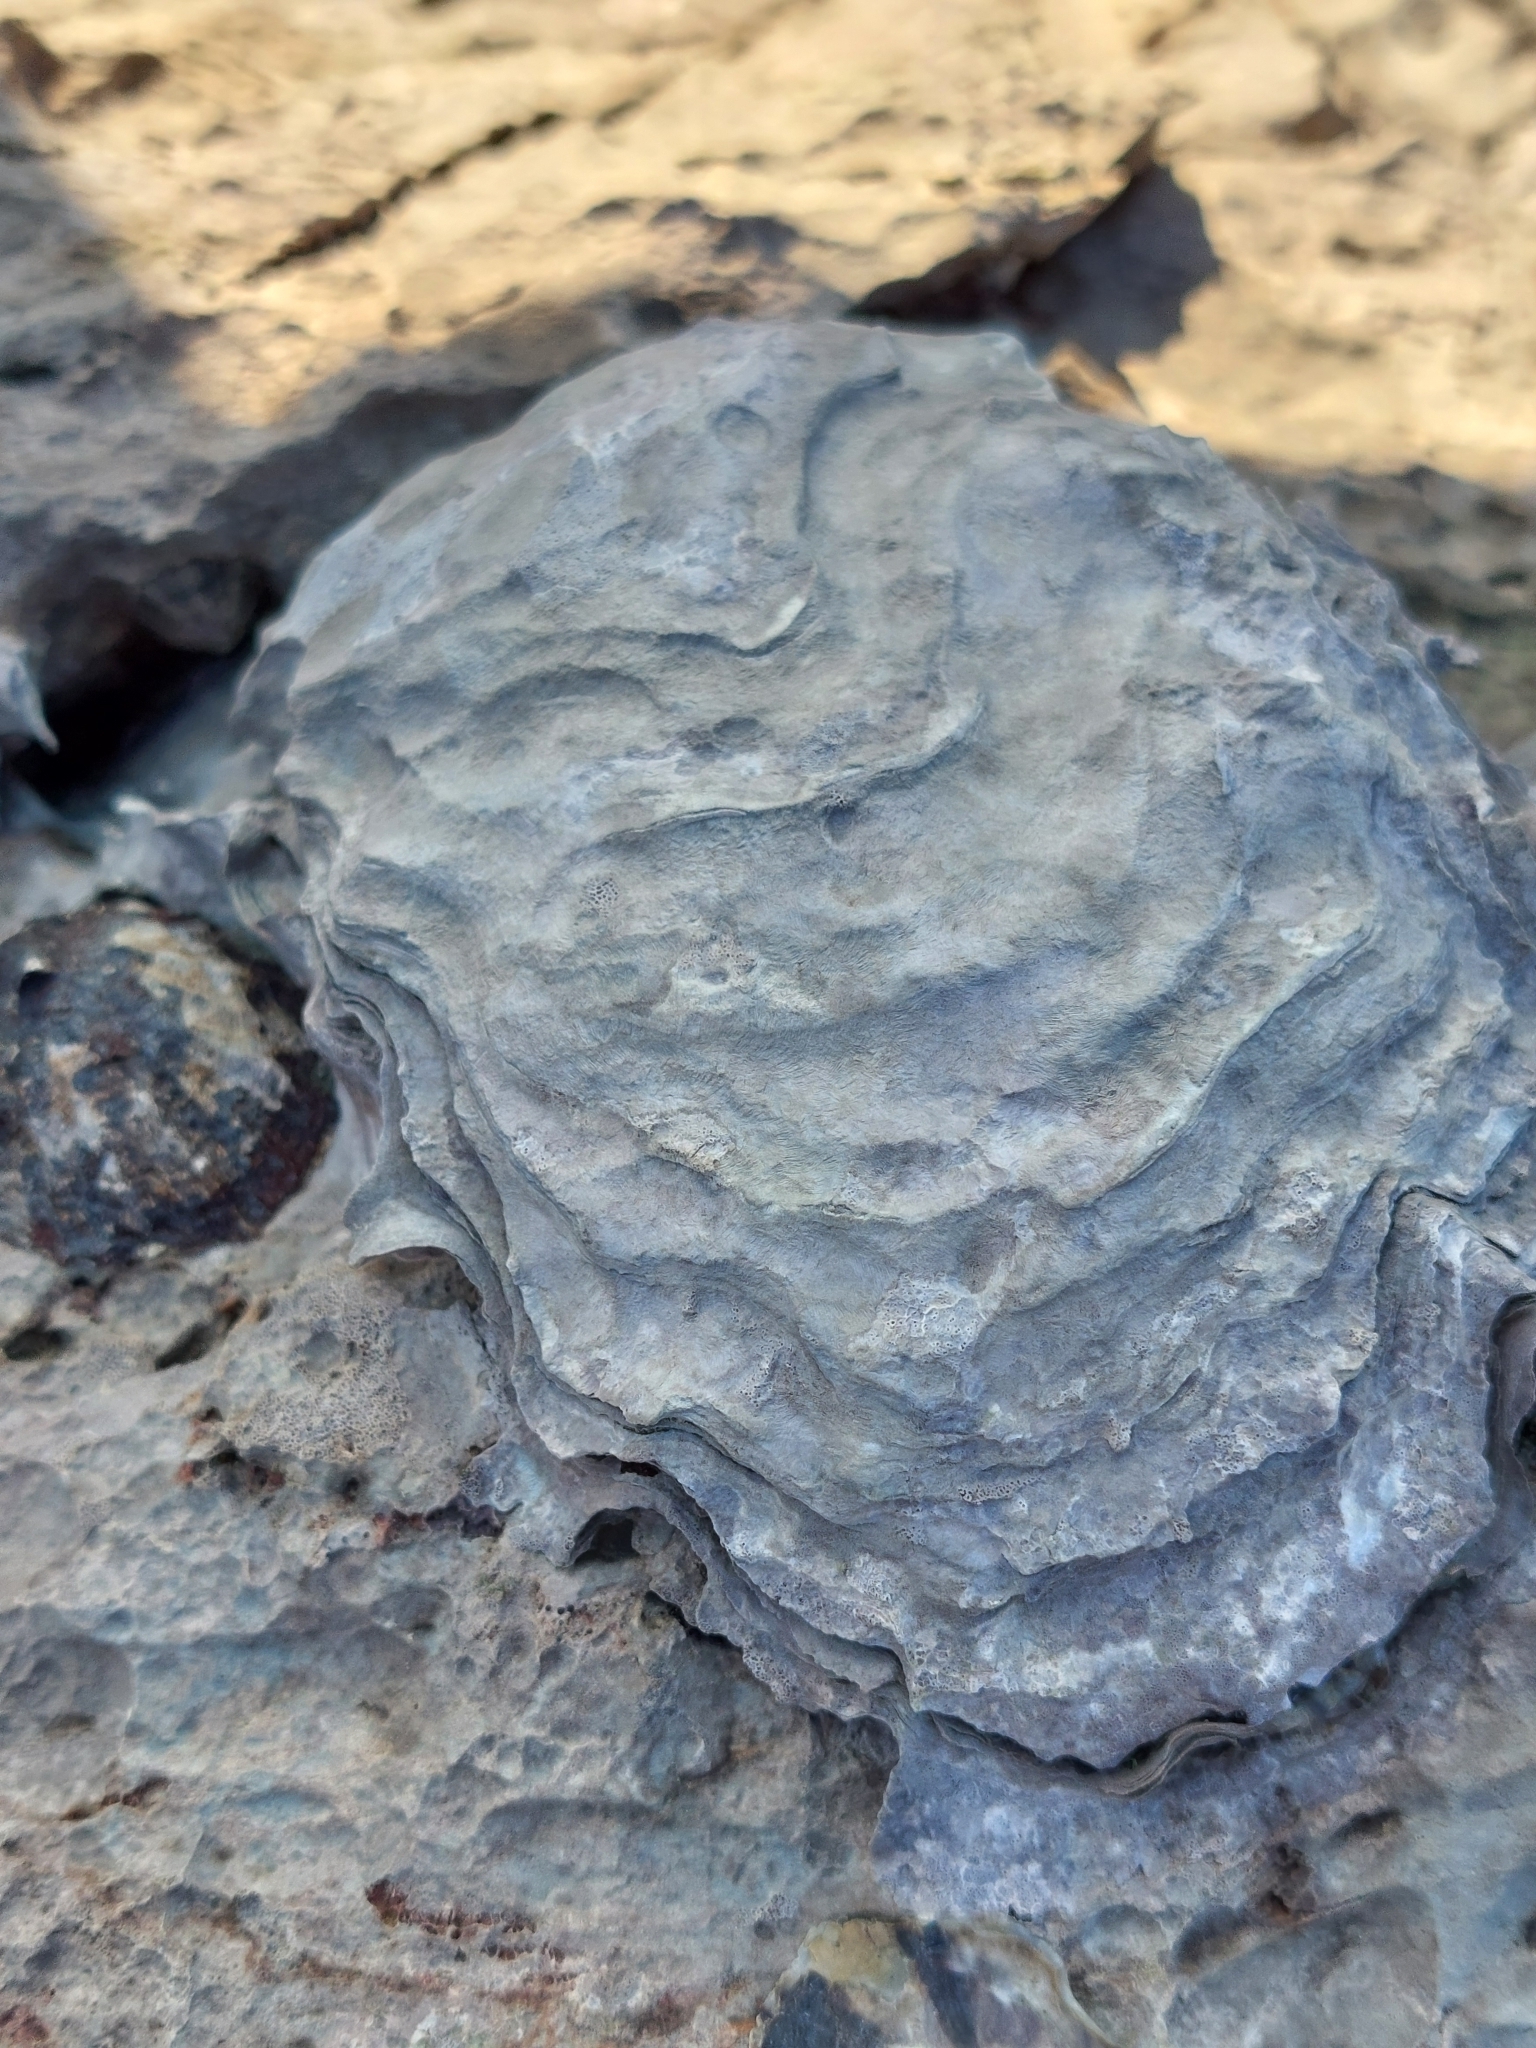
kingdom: Animalia
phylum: Mollusca
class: Bivalvia
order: Ostreida
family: Ostreidae
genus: Magallana
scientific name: Magallana gigas
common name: Pacific oyster
